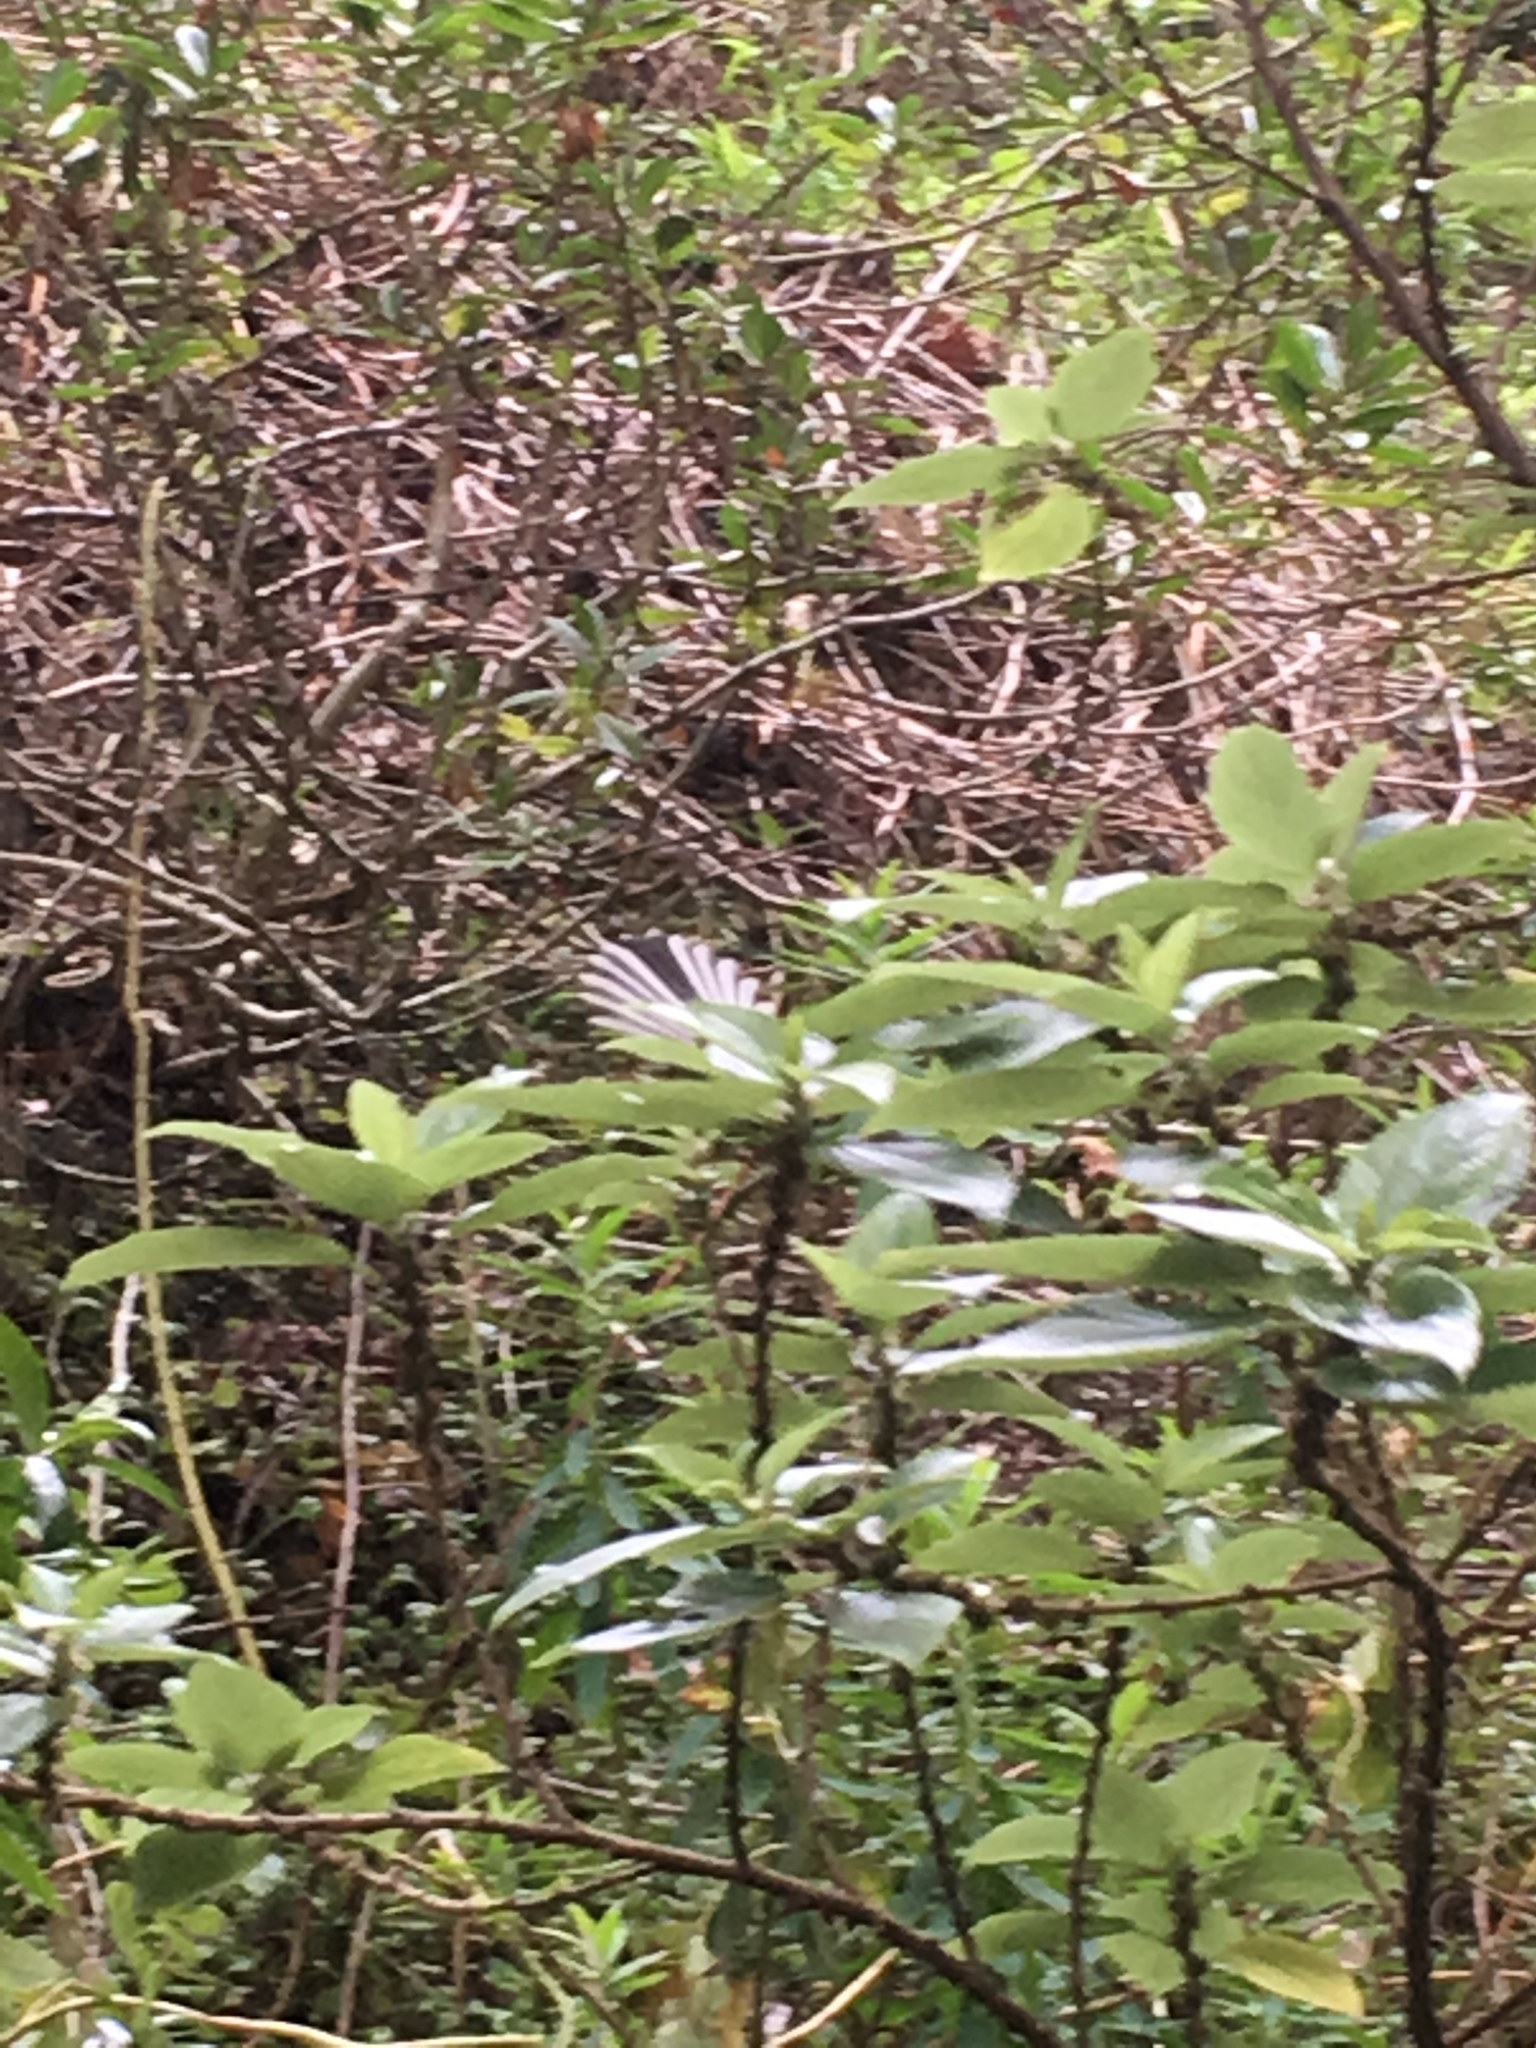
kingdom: Animalia
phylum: Chordata
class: Aves
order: Passeriformes
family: Rhipiduridae
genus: Rhipidura
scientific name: Rhipidura fuliginosa
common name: New zealand fantail
